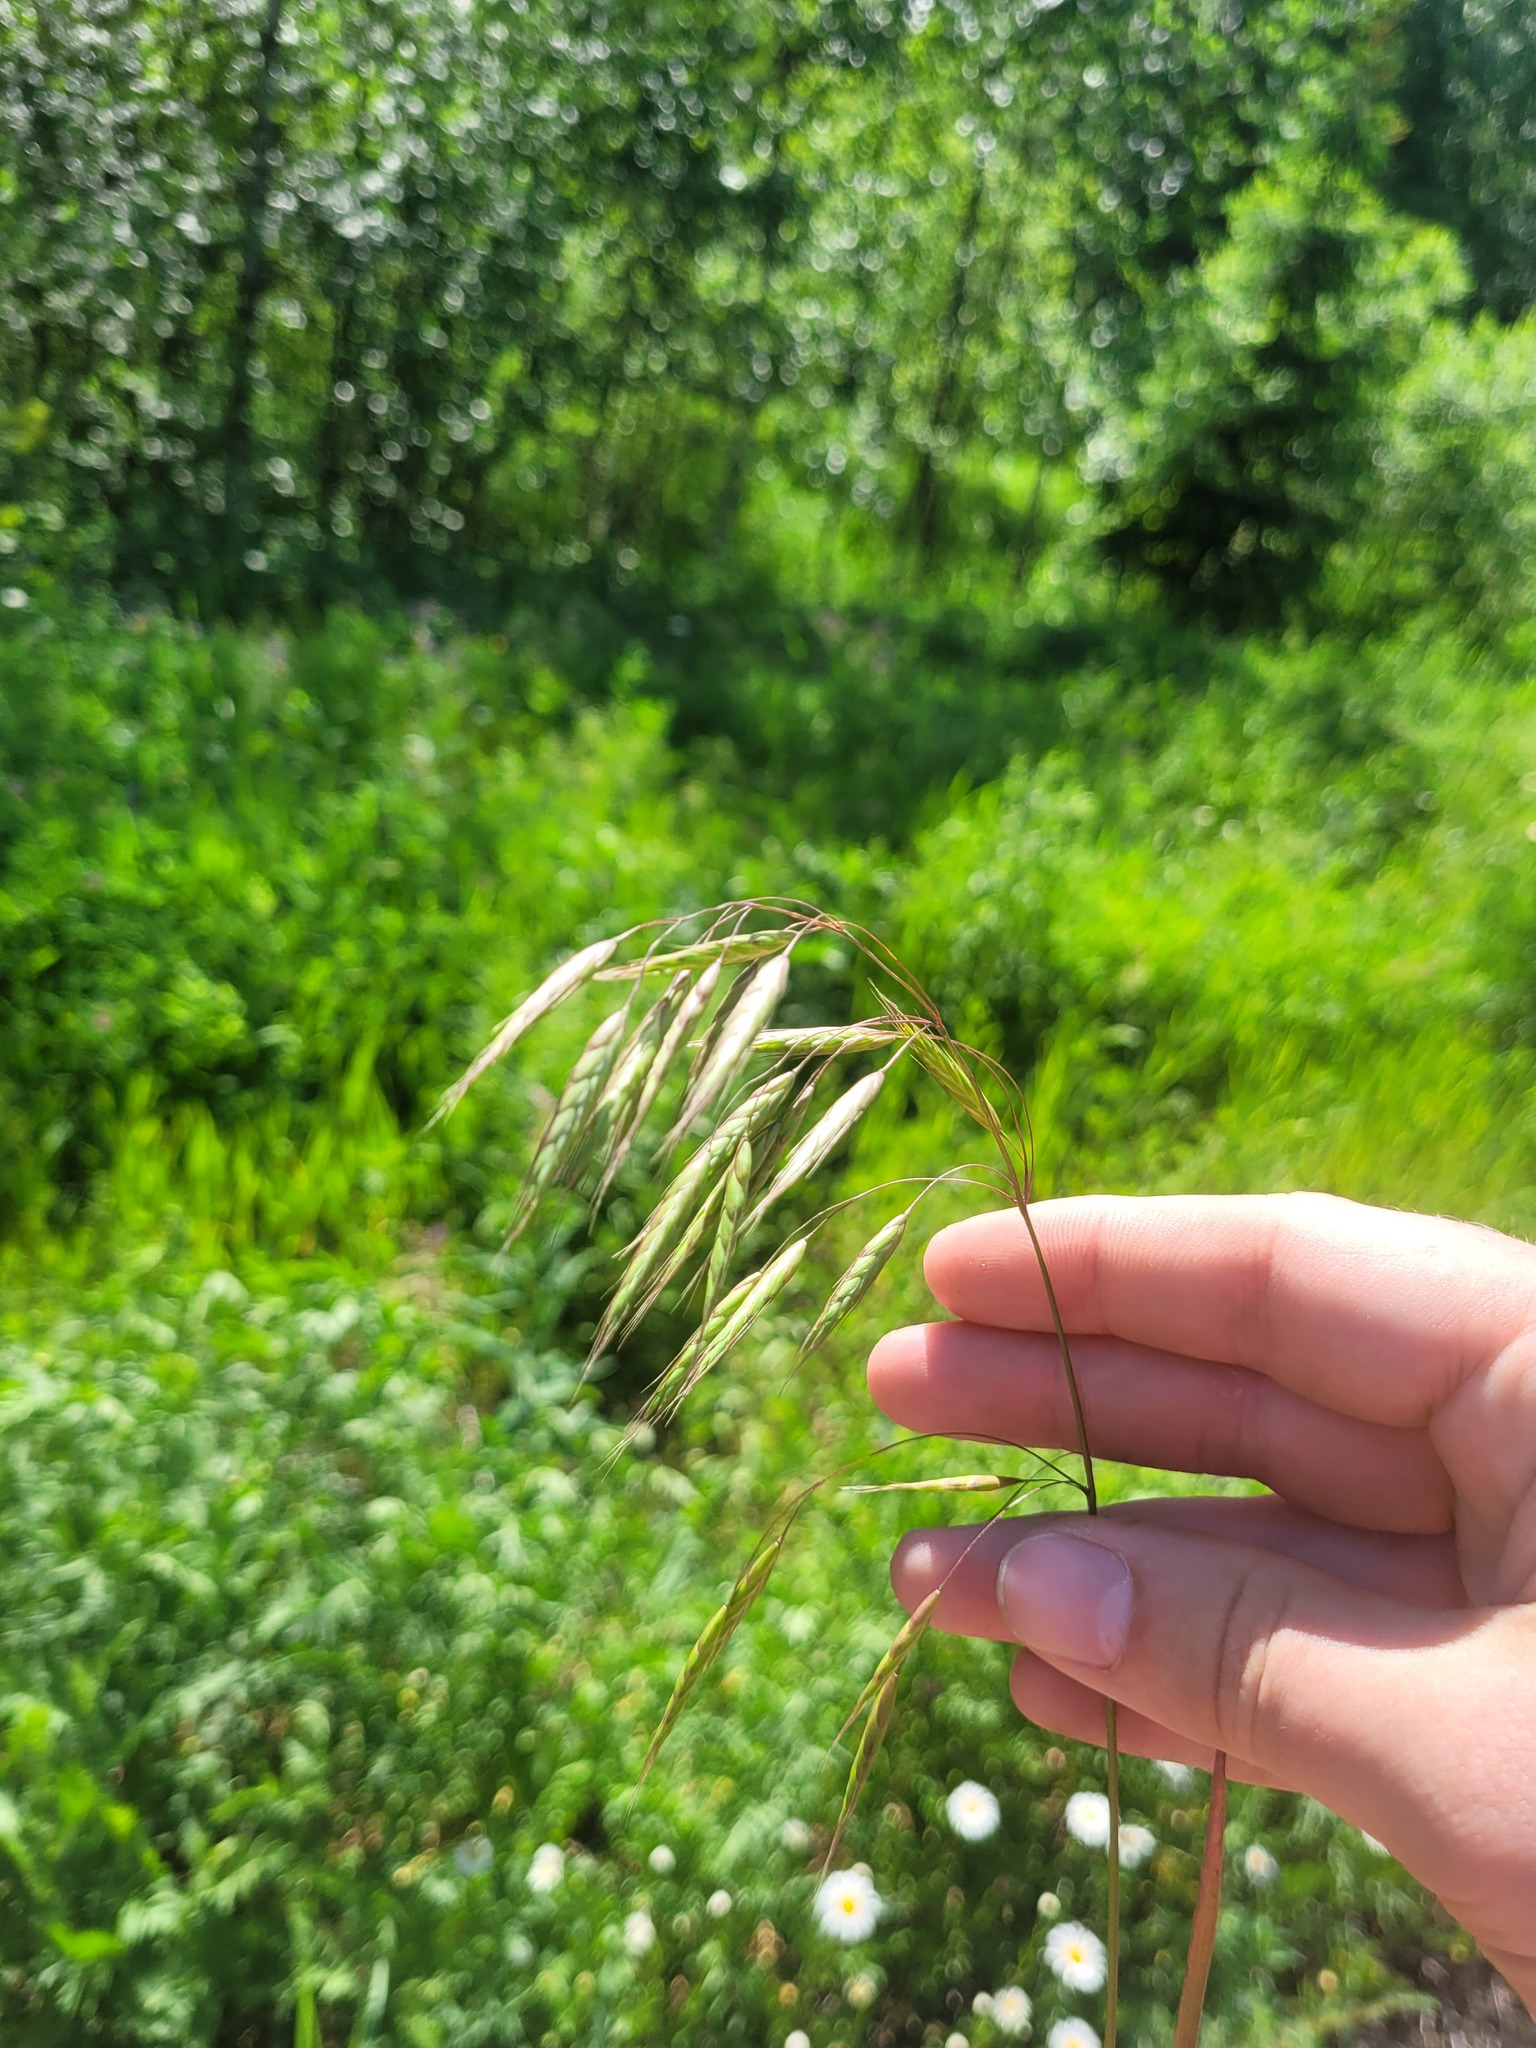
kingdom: Plantae
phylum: Tracheophyta
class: Liliopsida
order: Poales
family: Poaceae
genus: Bromus
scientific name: Bromus squarrosus
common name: Corn brome
